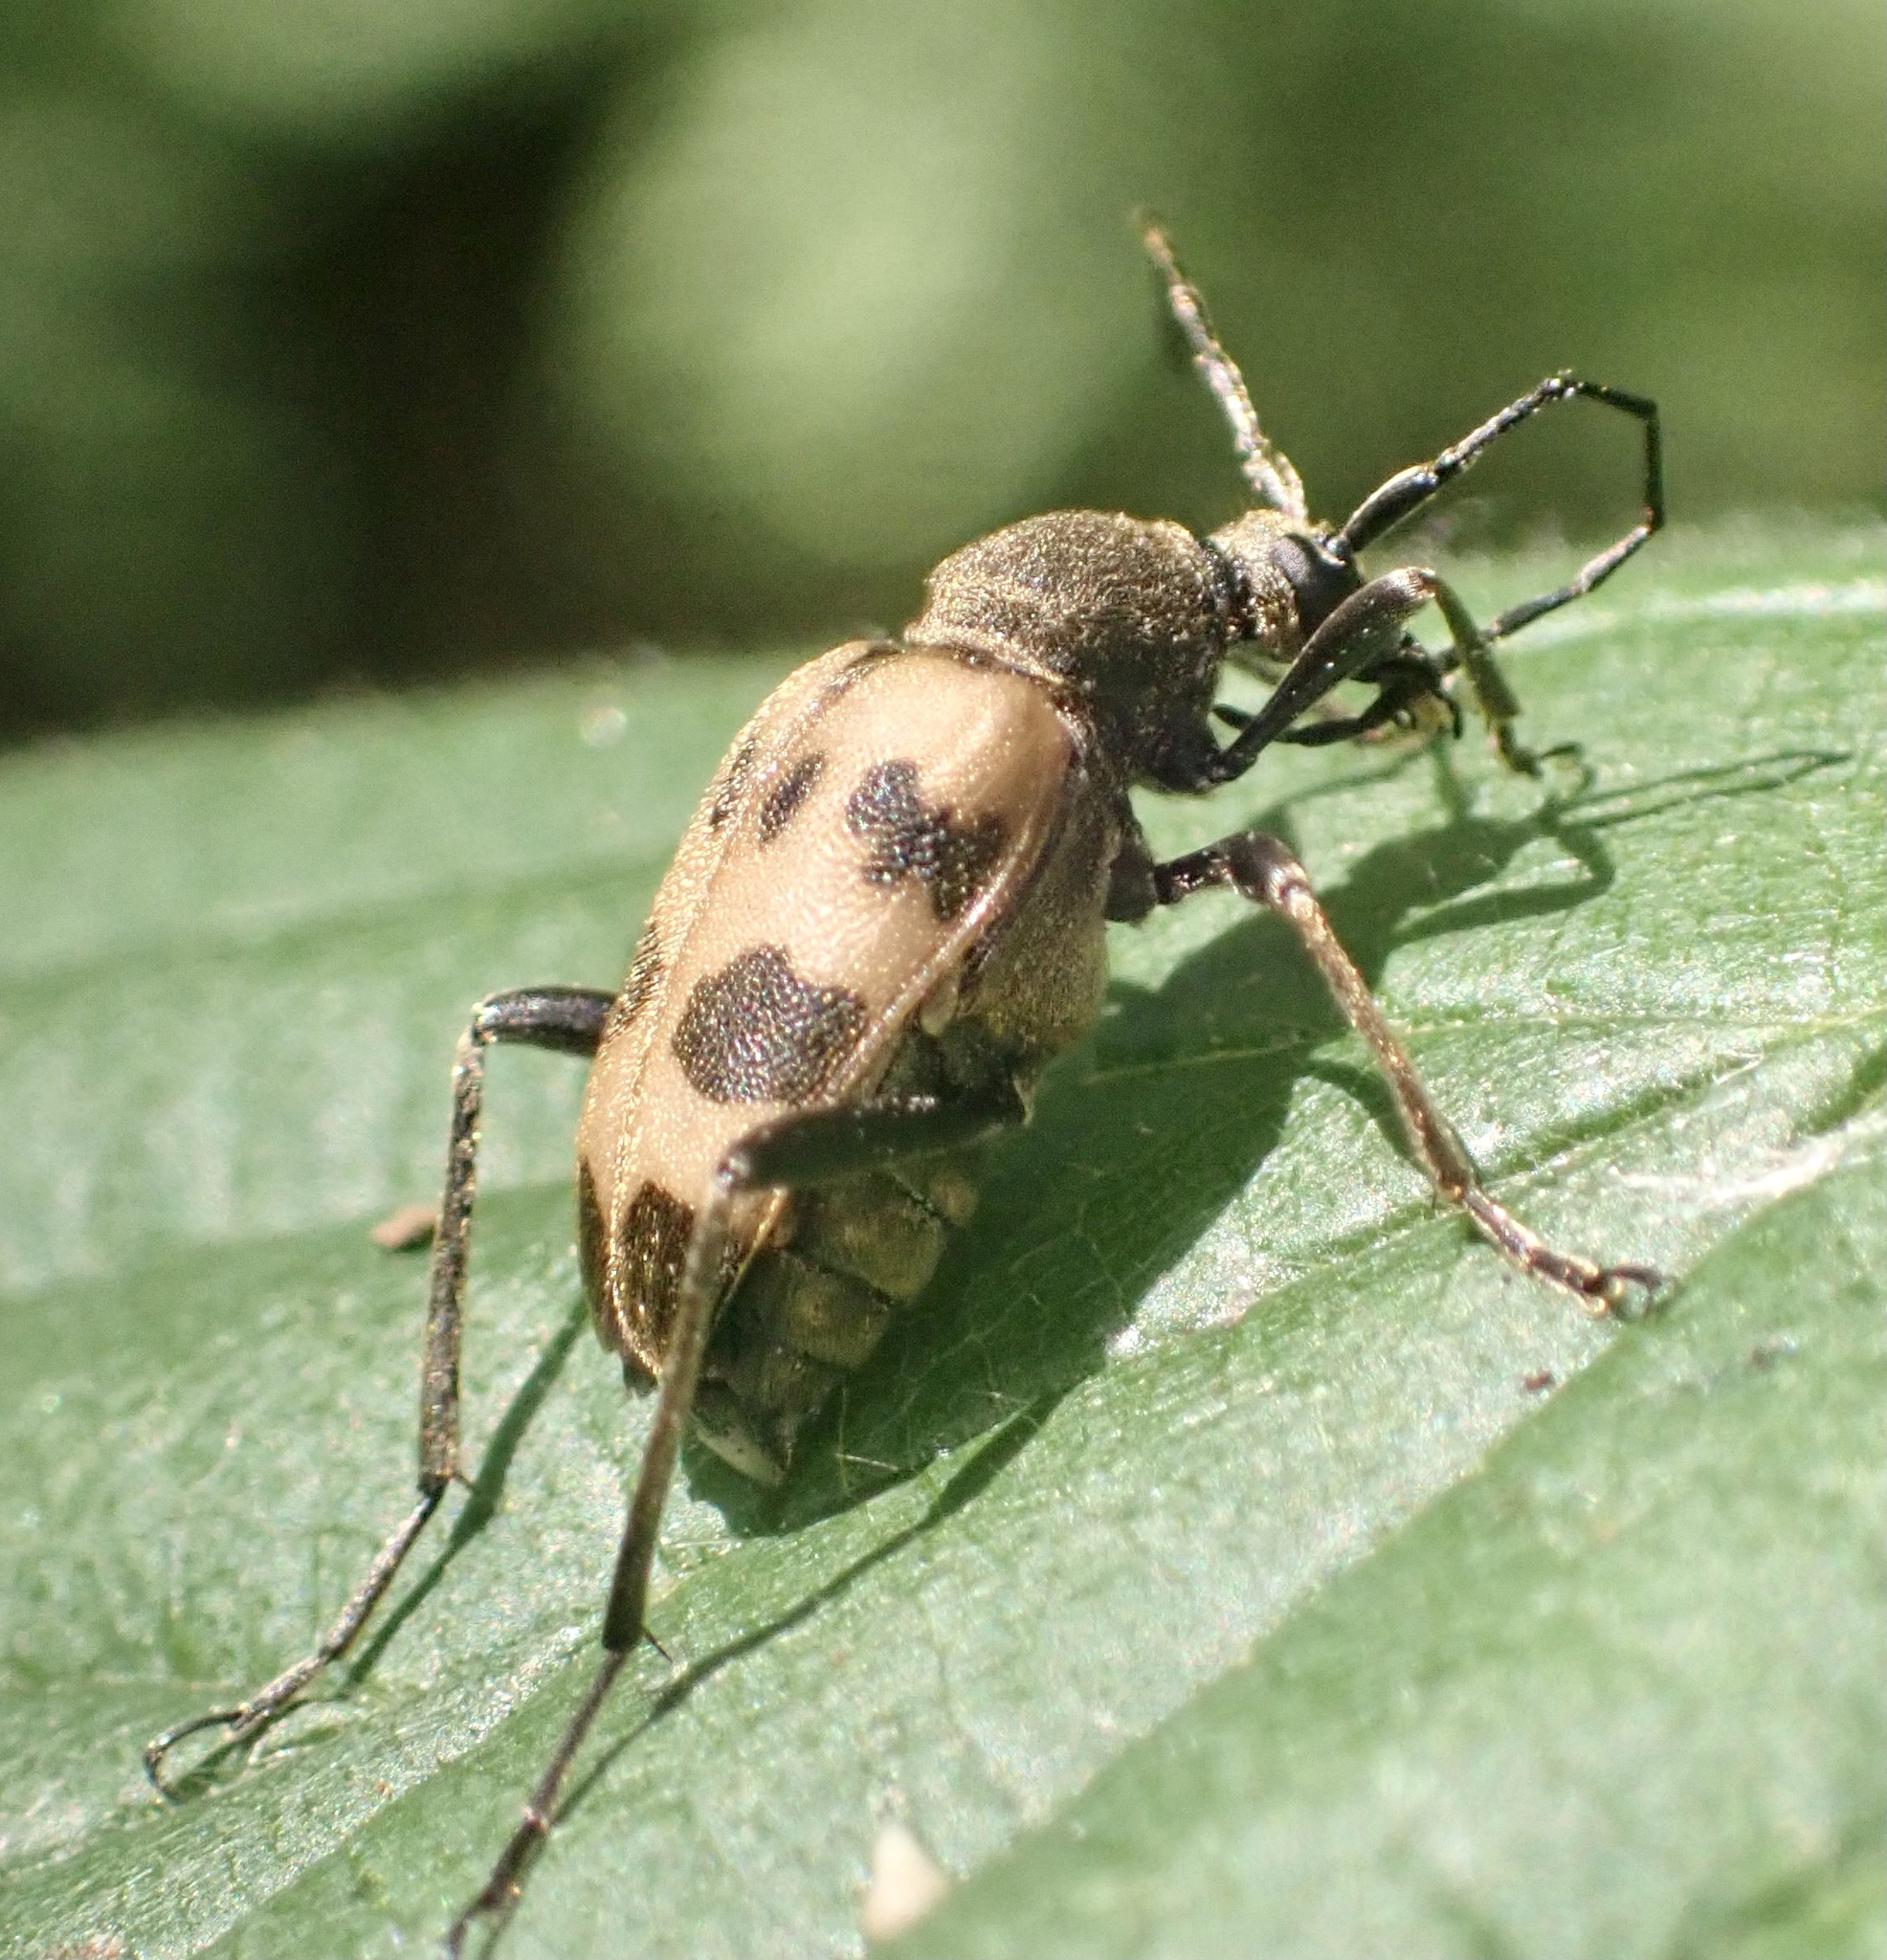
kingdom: Animalia
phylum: Arthropoda
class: Insecta
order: Coleoptera
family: Cerambycidae
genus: Pachytodes
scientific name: Pachytodes cerambyciformis
